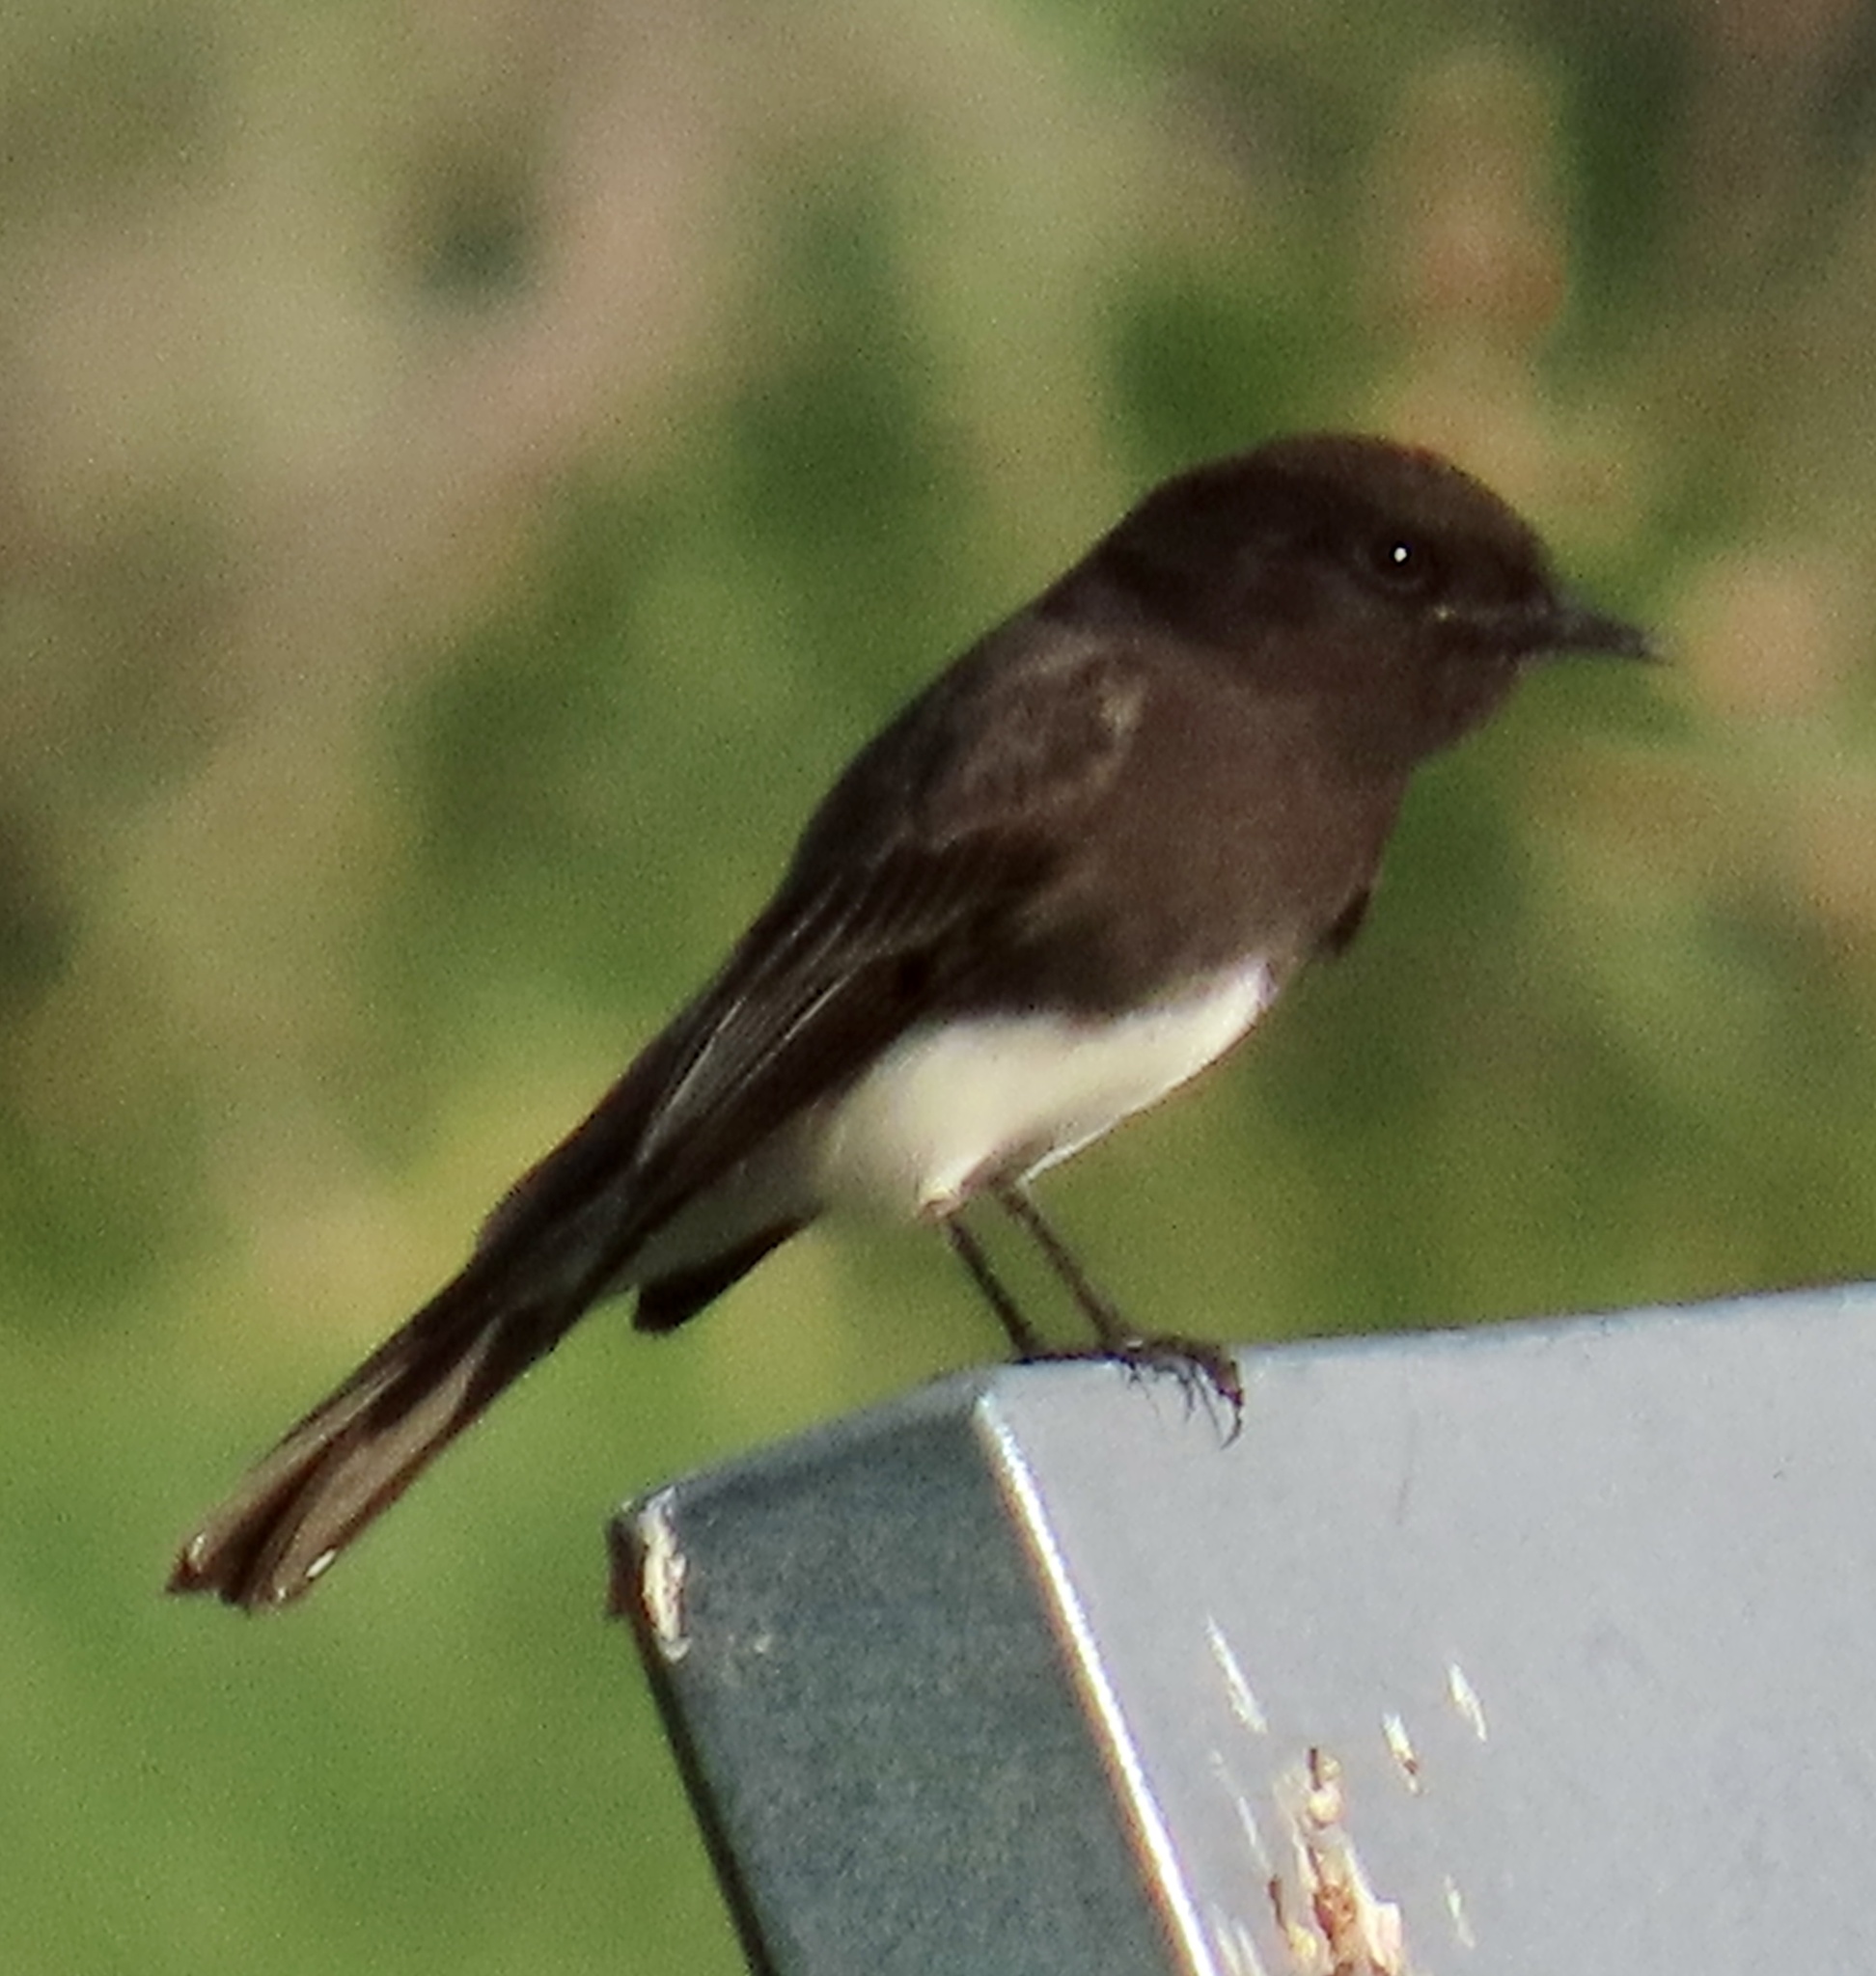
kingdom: Animalia
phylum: Chordata
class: Aves
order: Passeriformes
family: Tyrannidae
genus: Sayornis
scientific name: Sayornis nigricans
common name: Black phoebe
